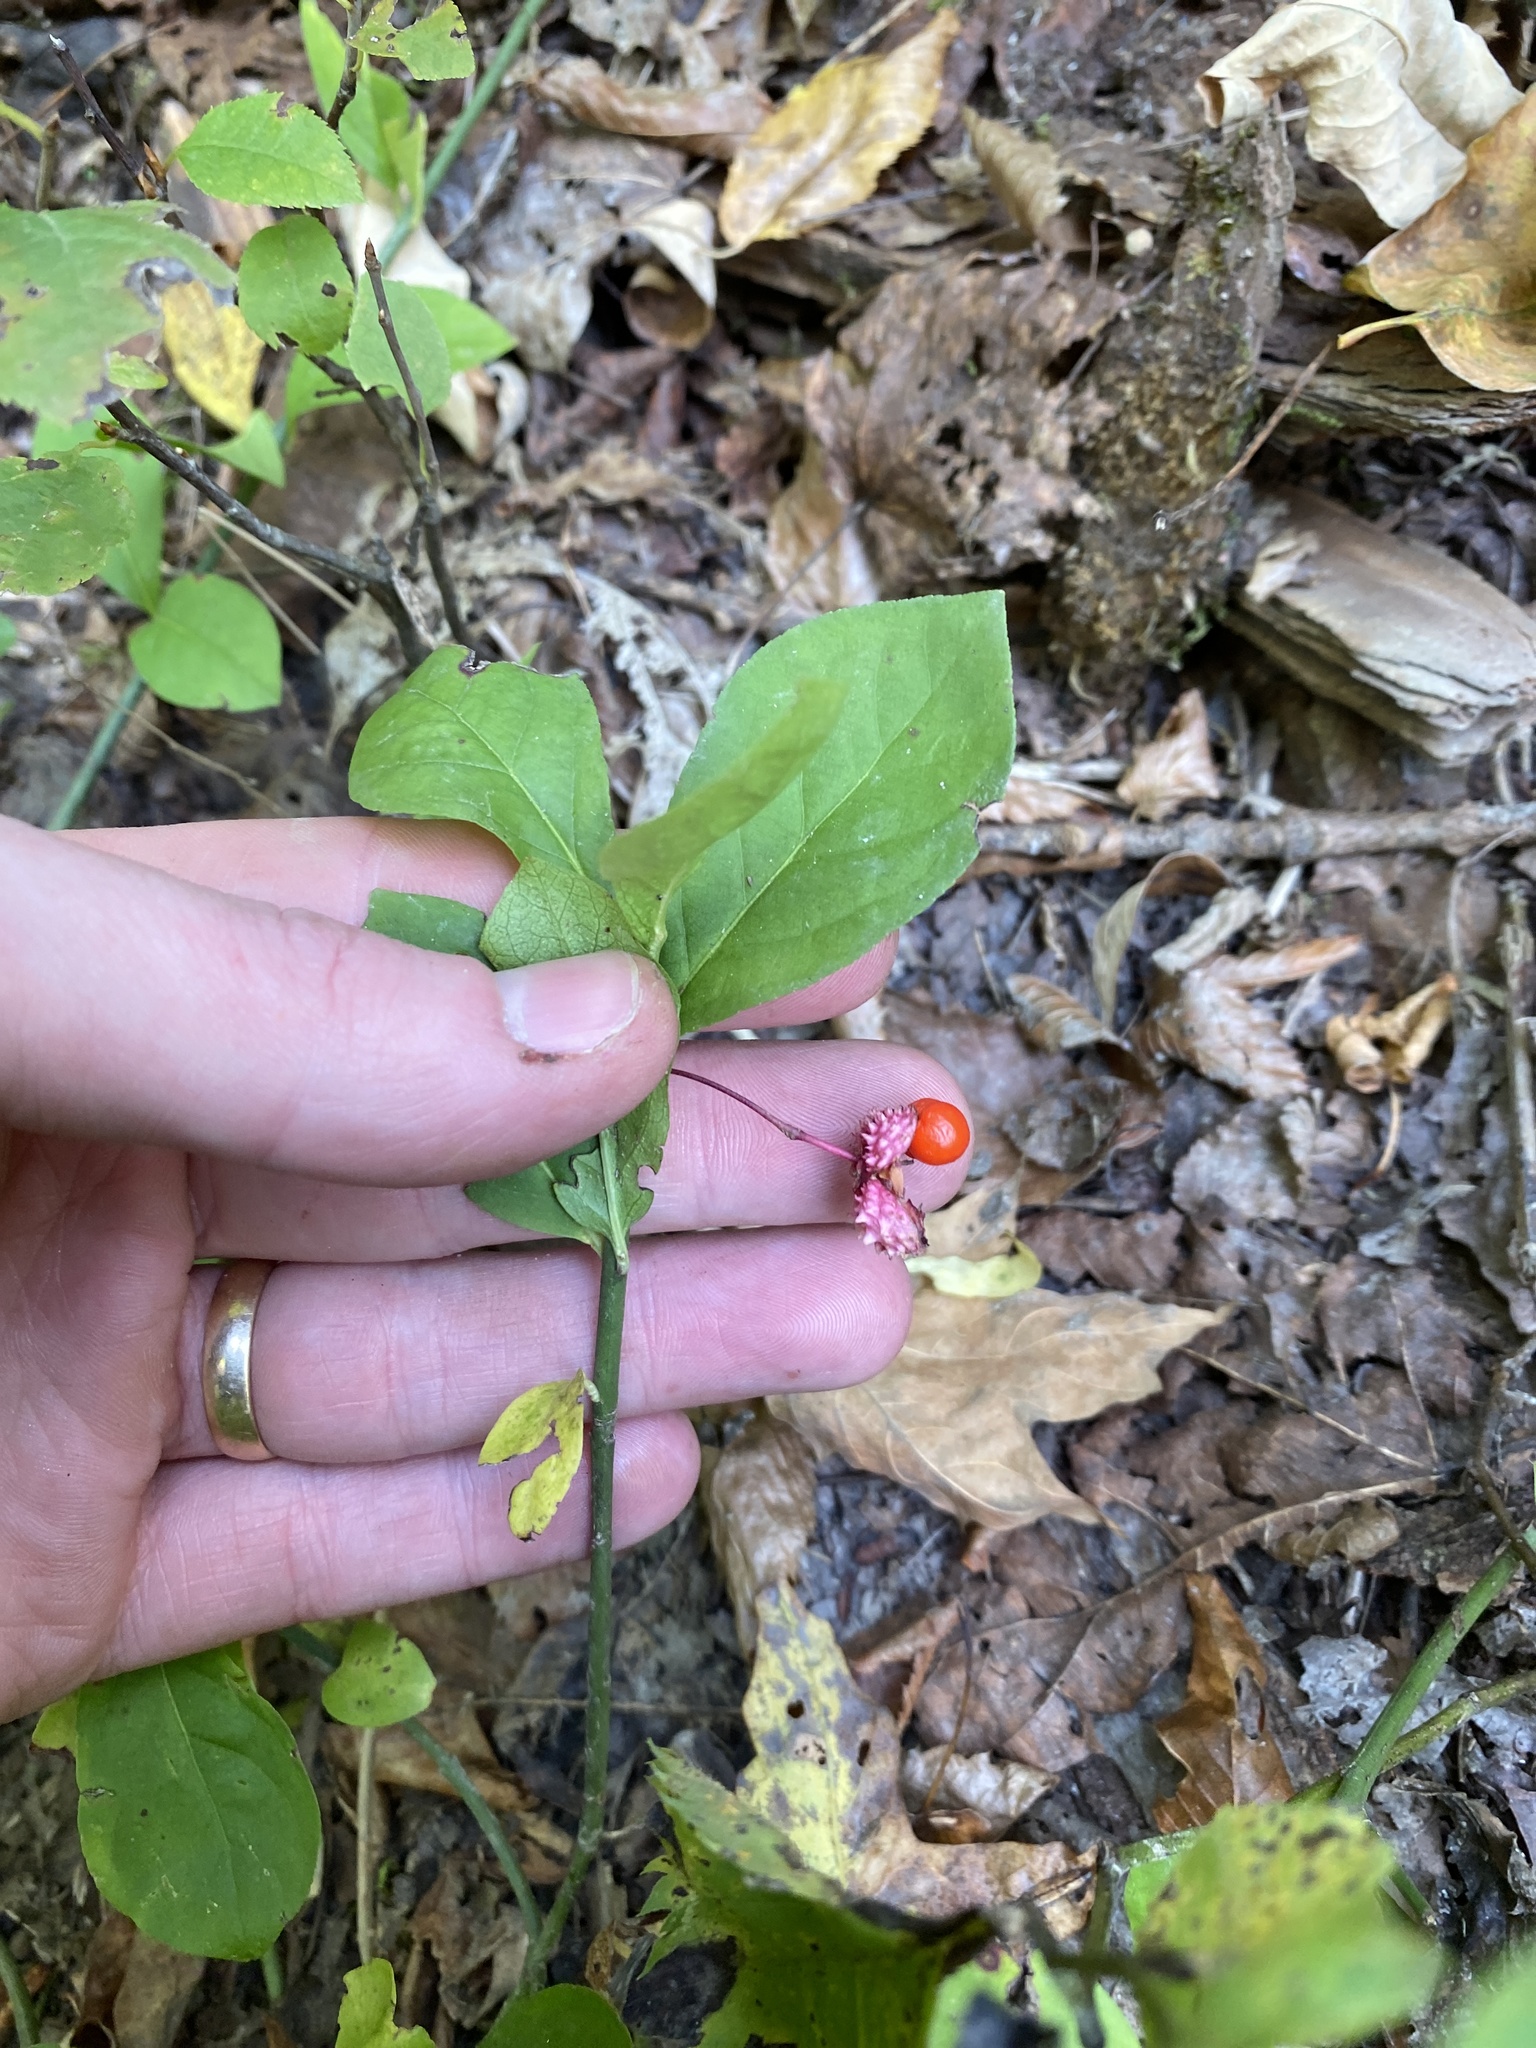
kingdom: Plantae
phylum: Tracheophyta
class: Magnoliopsida
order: Celastrales
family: Celastraceae
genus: Euonymus
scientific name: Euonymus obovatus
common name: Running strawberry-bush
